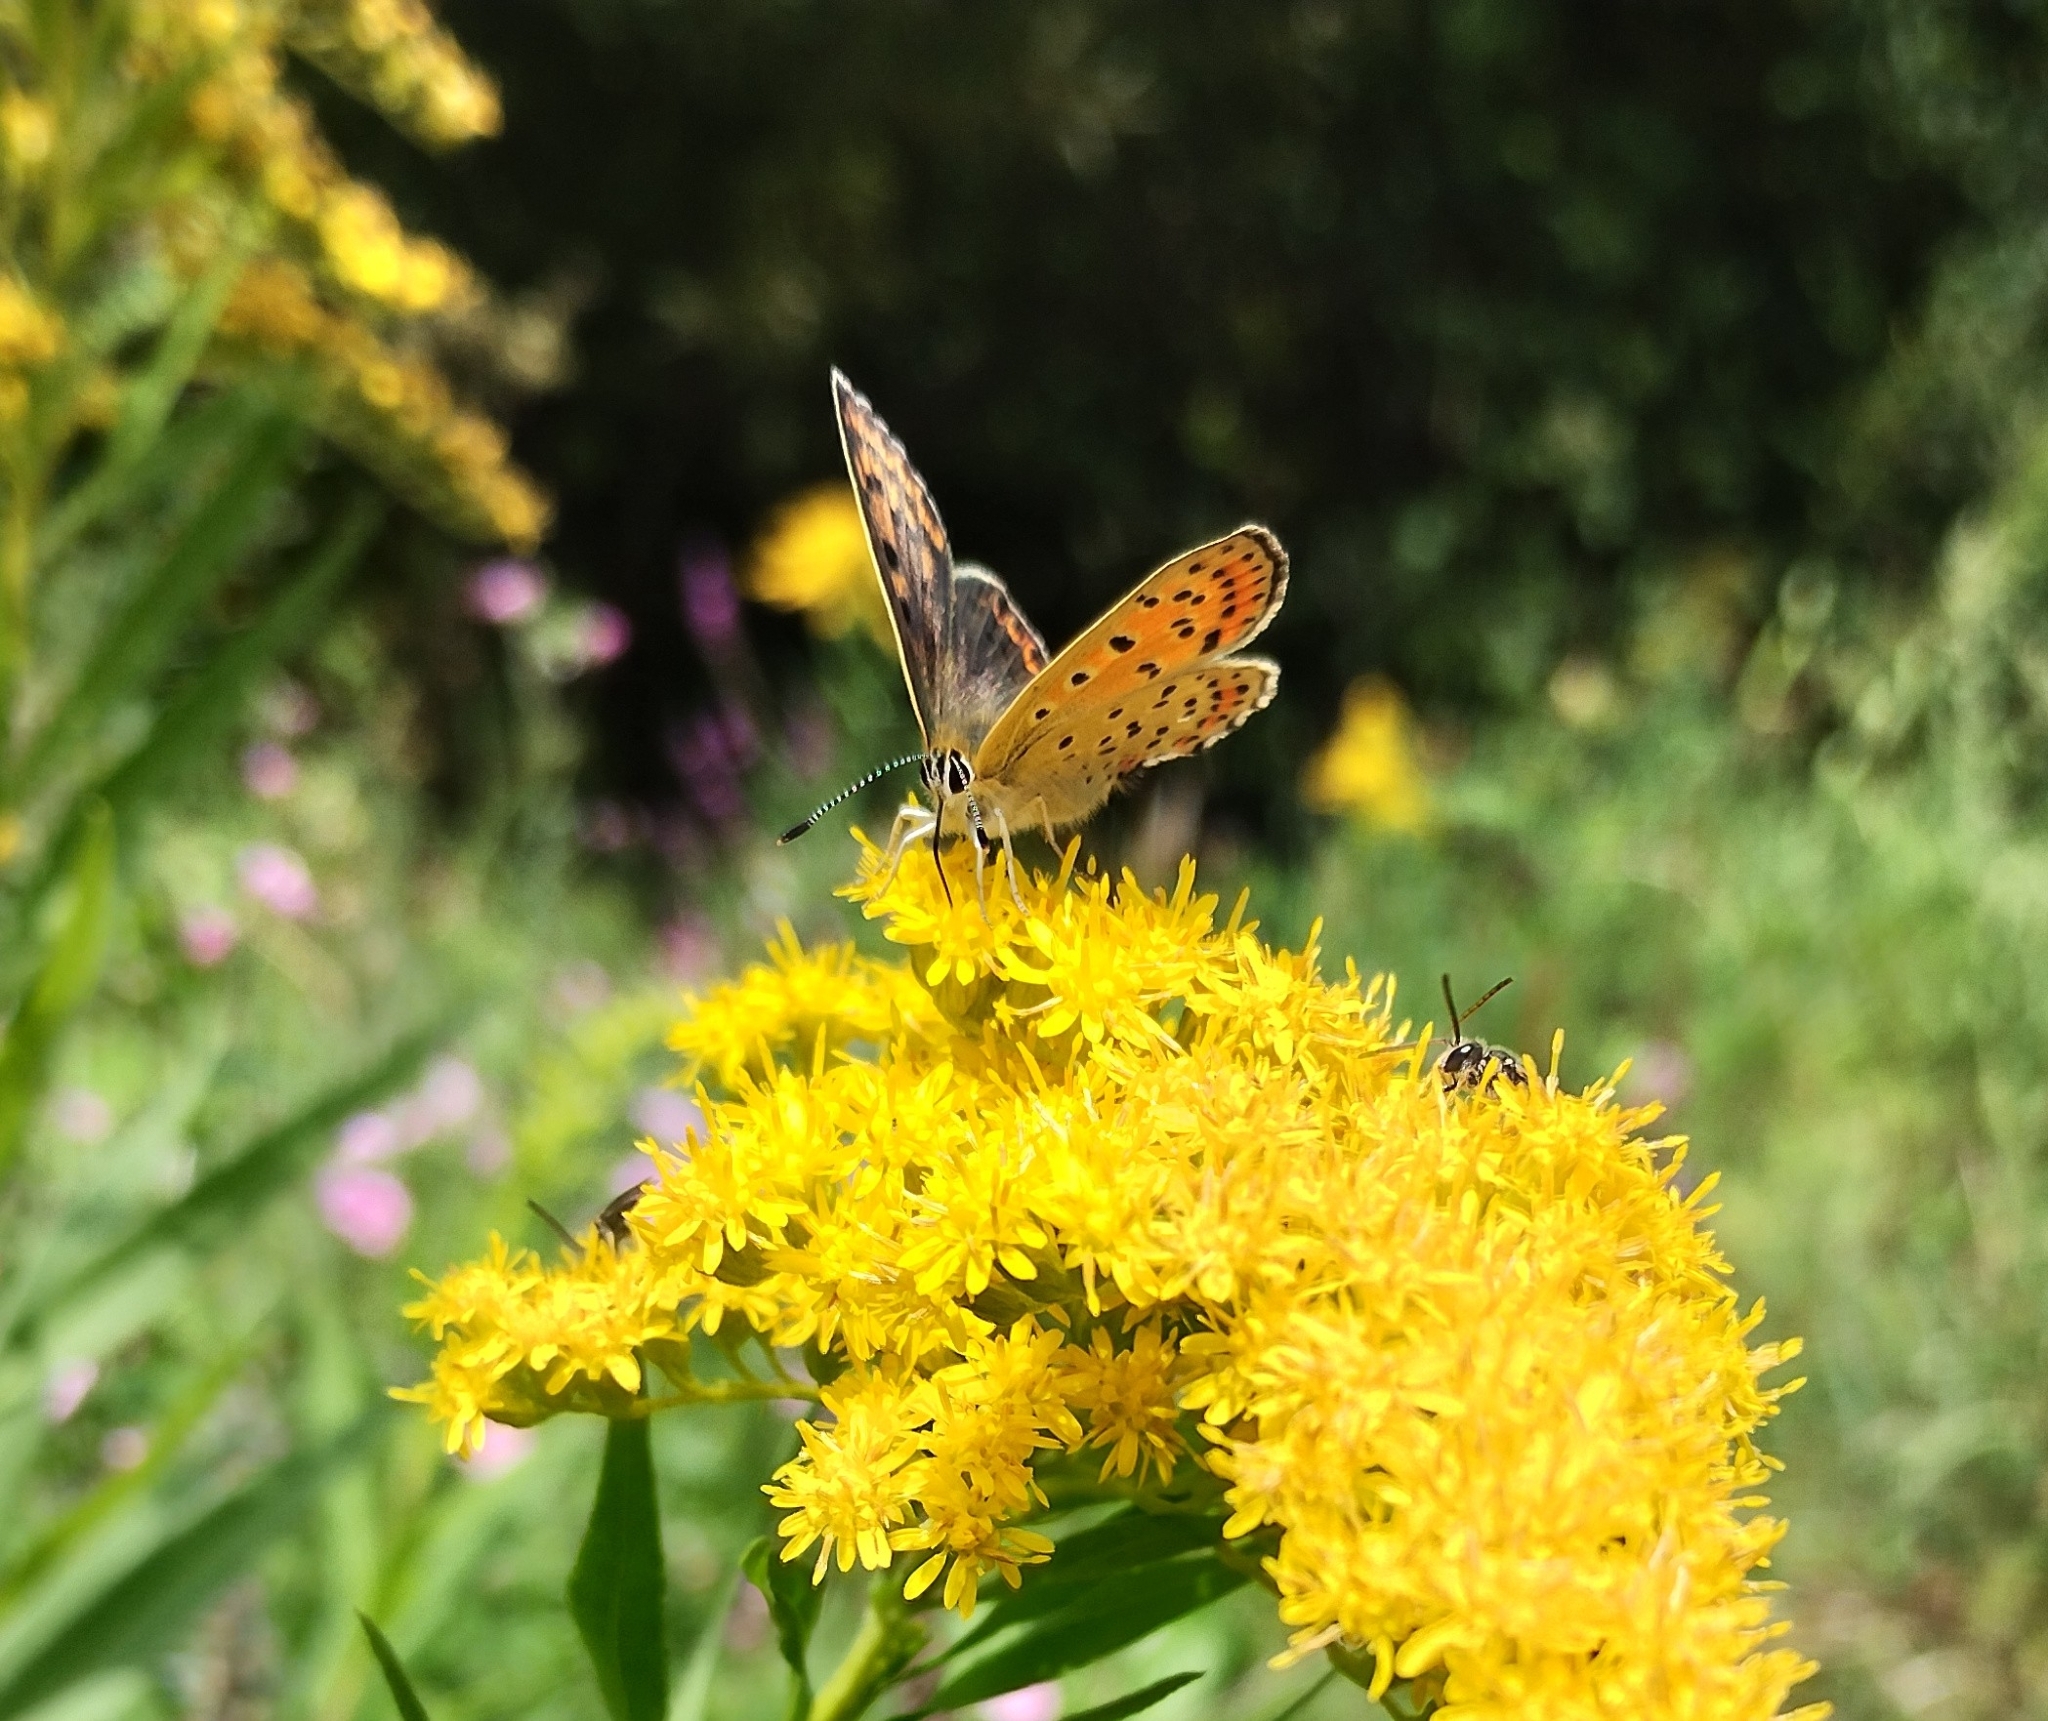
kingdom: Animalia
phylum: Arthropoda
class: Insecta
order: Lepidoptera
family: Lycaenidae
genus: Loweia
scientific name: Loweia tityrus
